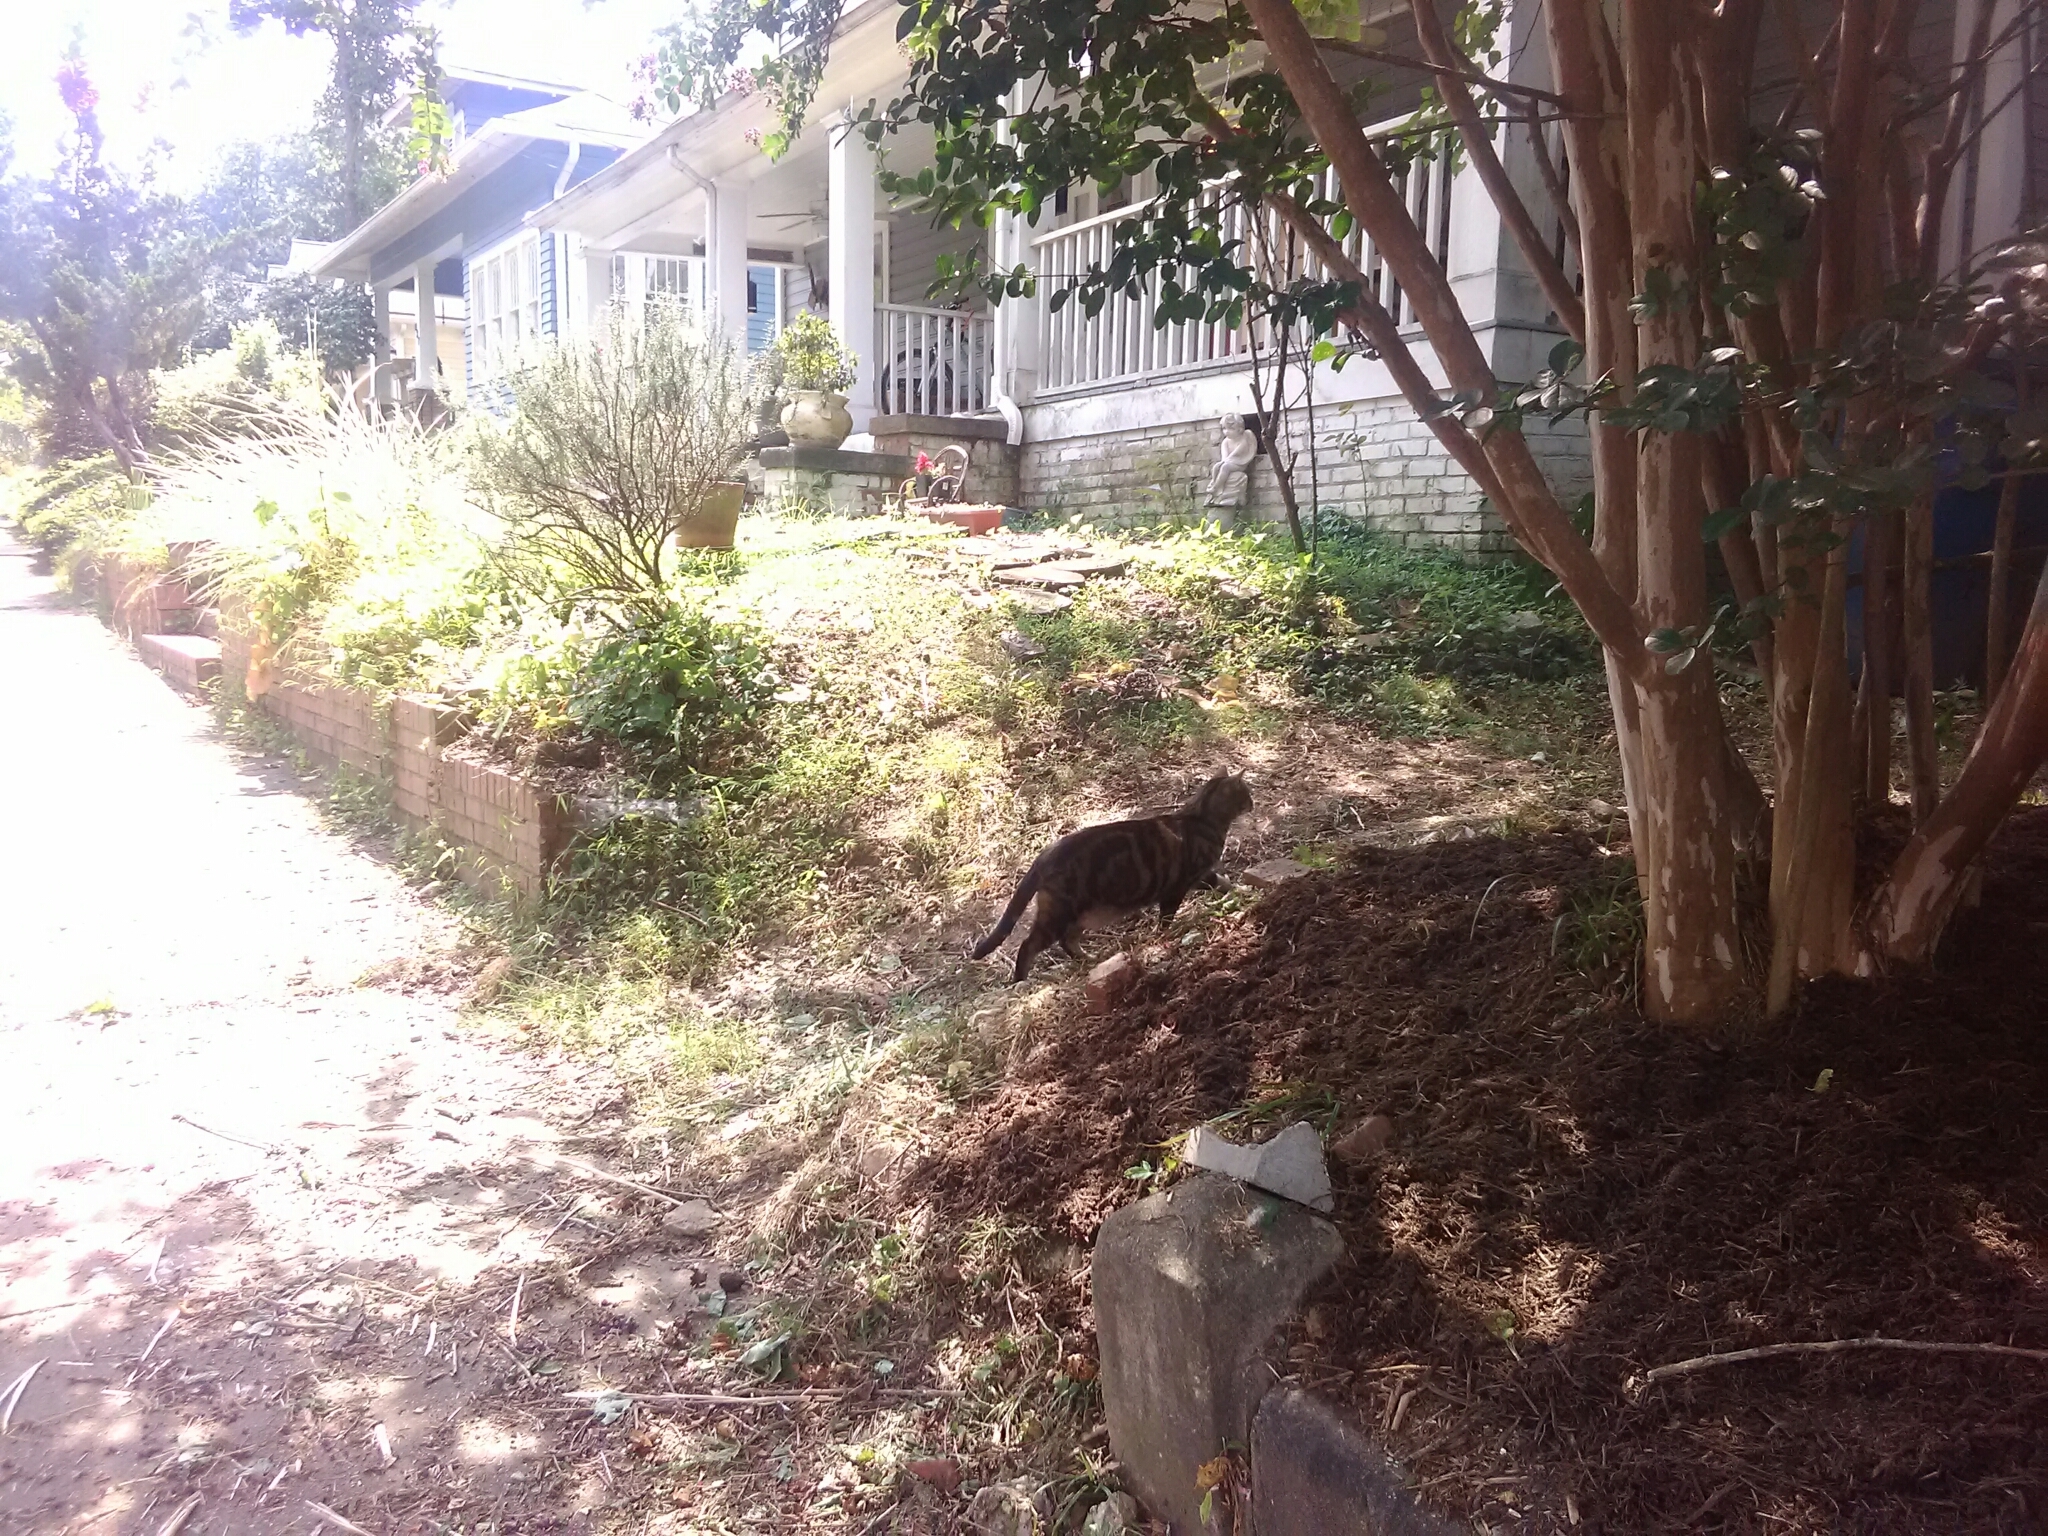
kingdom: Animalia
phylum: Chordata
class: Mammalia
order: Carnivora
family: Felidae
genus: Felis
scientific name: Felis catus
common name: Domestic cat
